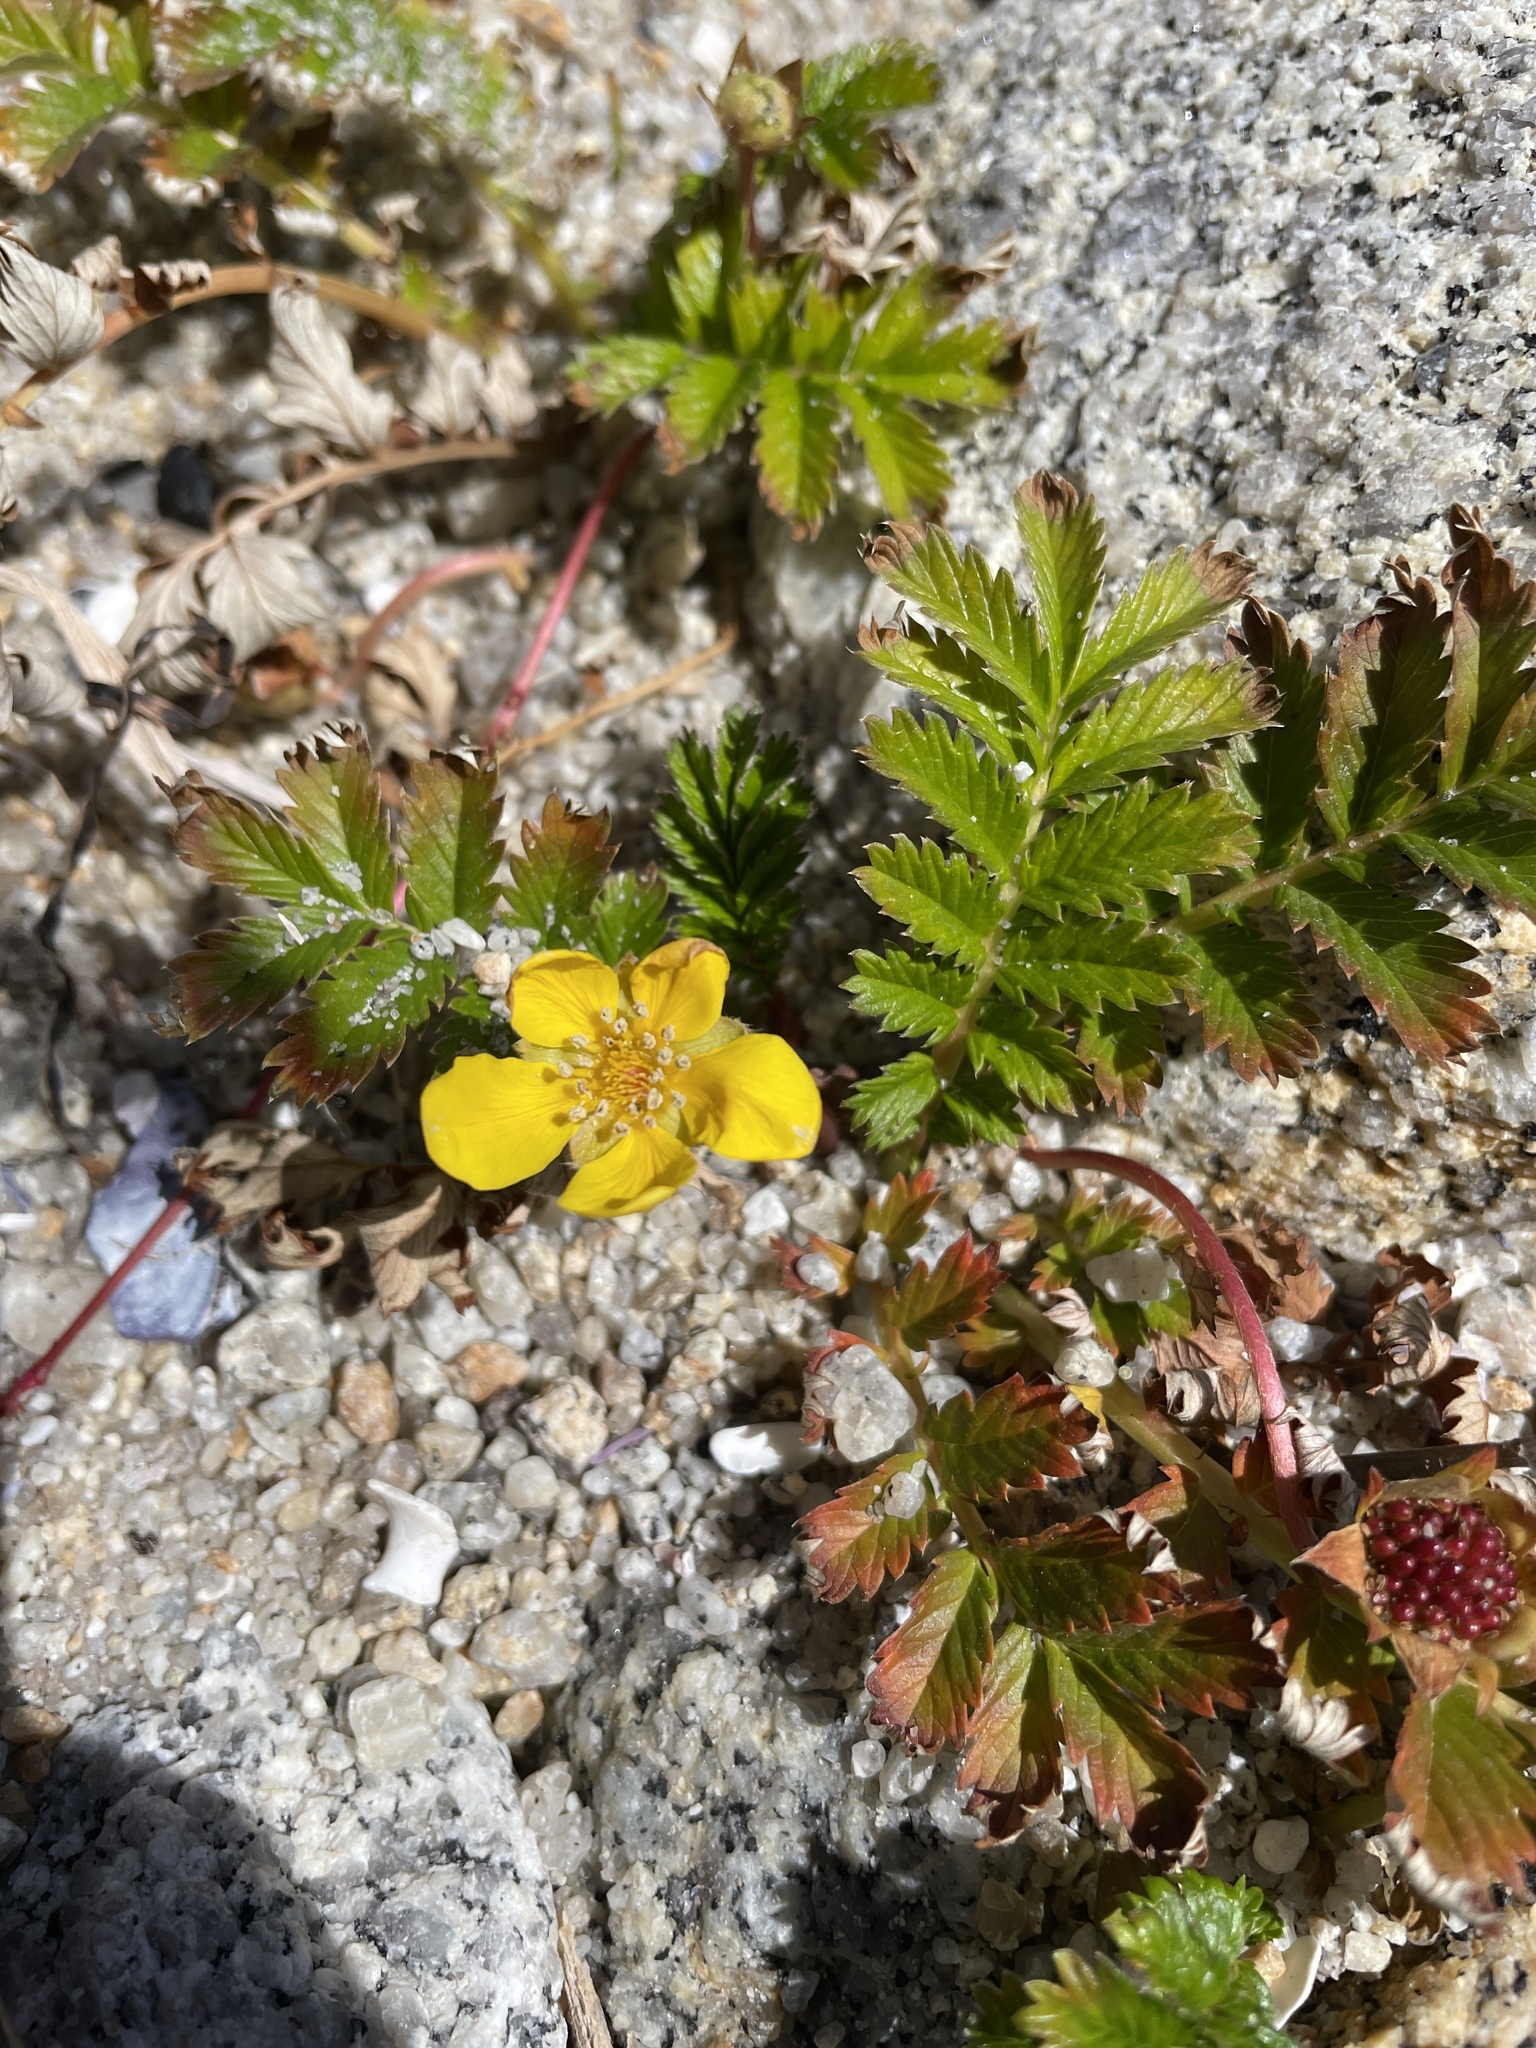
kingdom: Plantae
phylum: Tracheophyta
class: Magnoliopsida
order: Rosales
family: Rosaceae
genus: Argentina
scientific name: Argentina anserina
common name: Common silverweed
